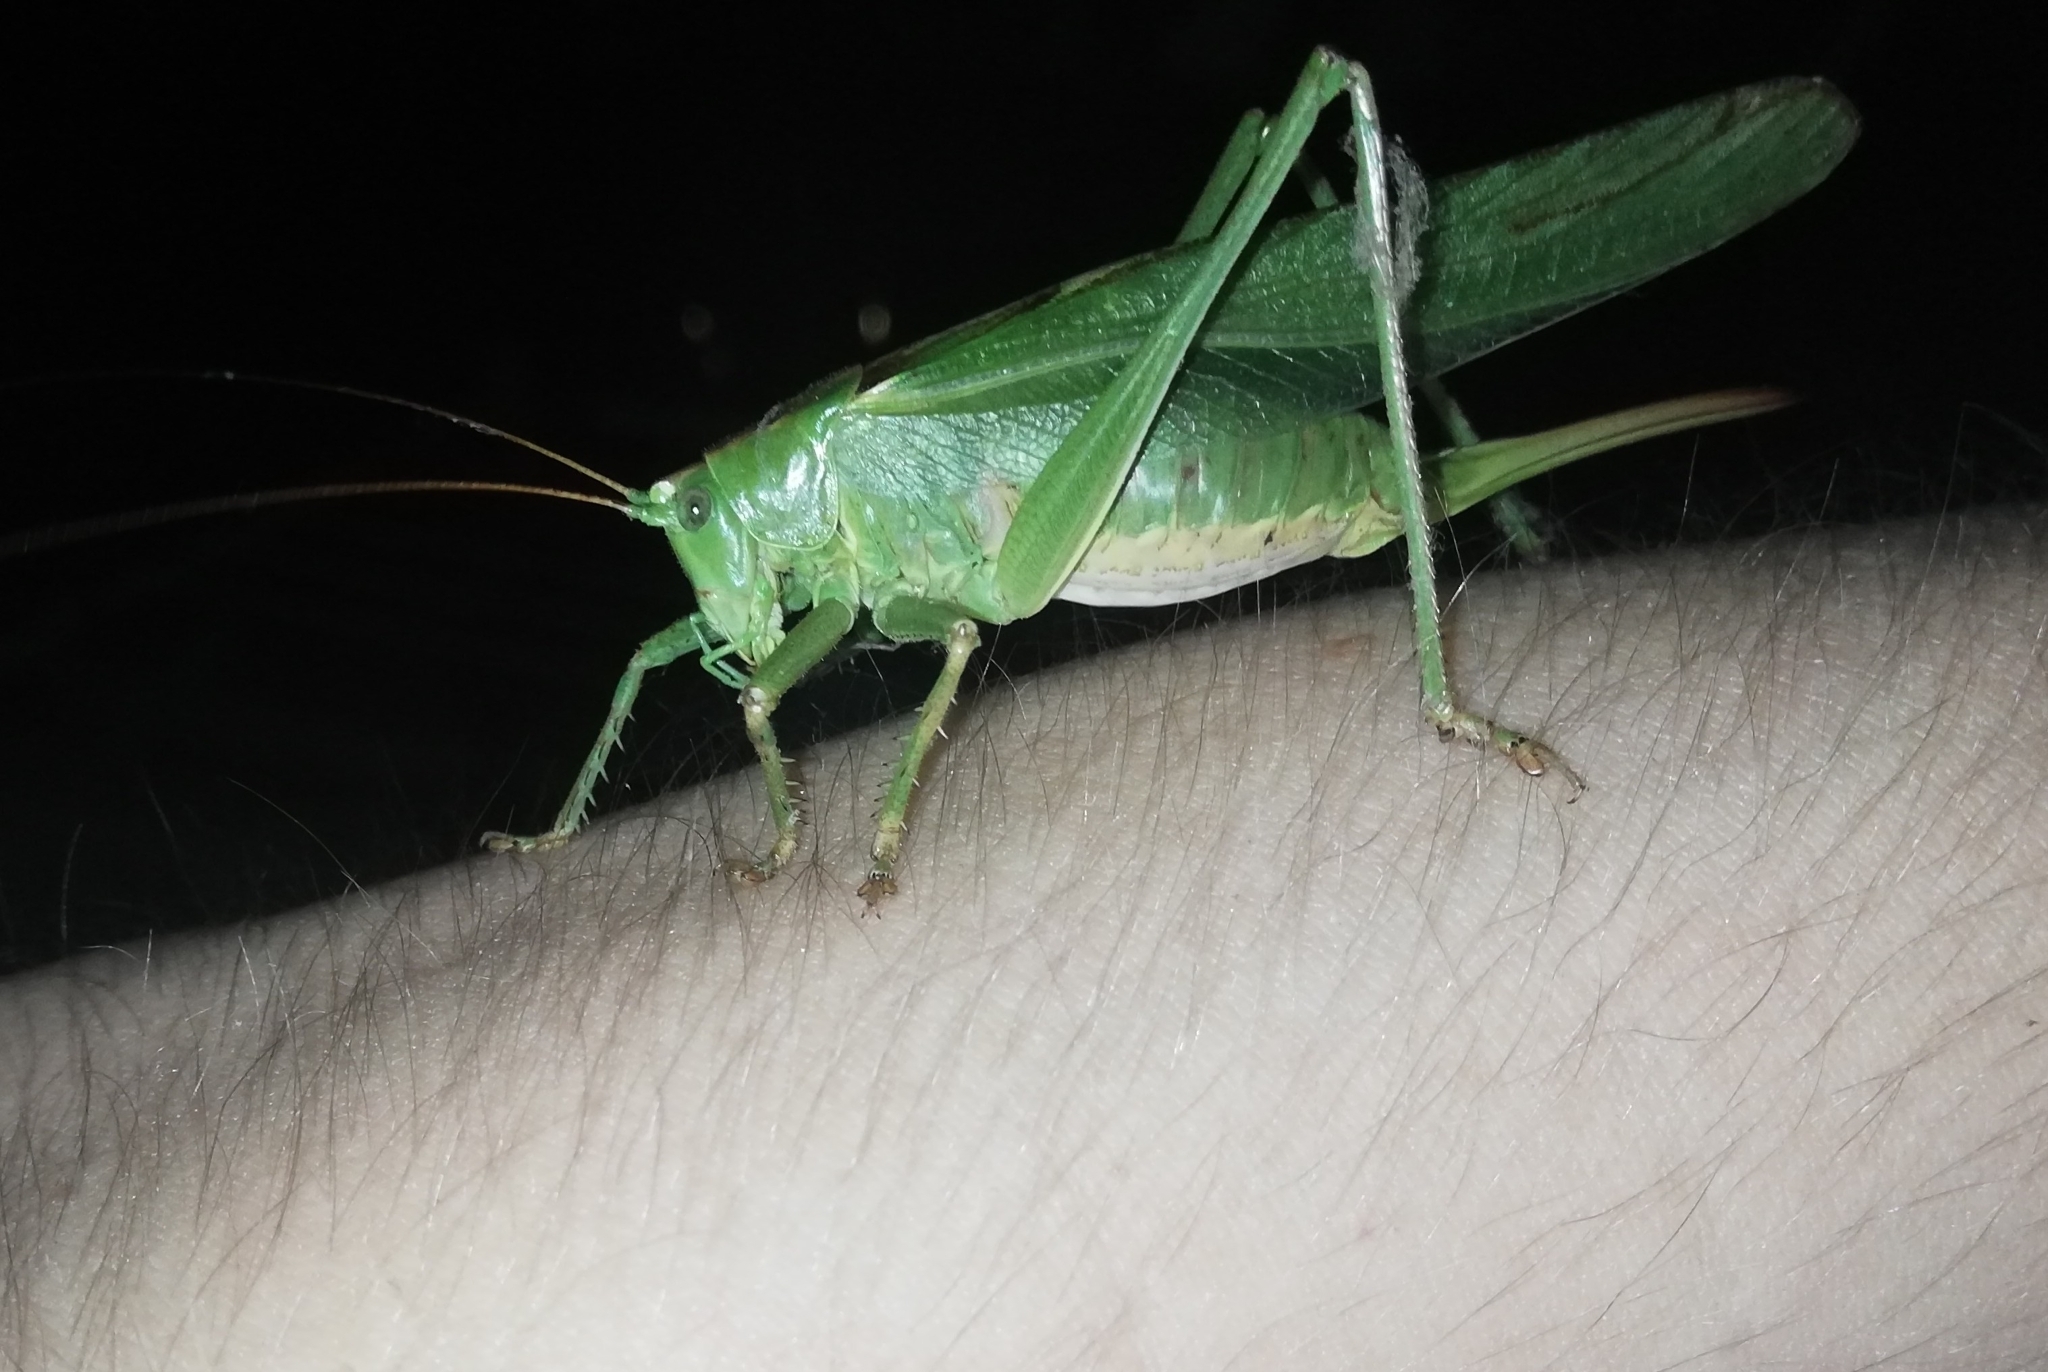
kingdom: Animalia
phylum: Arthropoda
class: Insecta
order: Orthoptera
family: Tettigoniidae
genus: Tettigonia
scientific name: Tettigonia viridissima
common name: Great green bush-cricket
